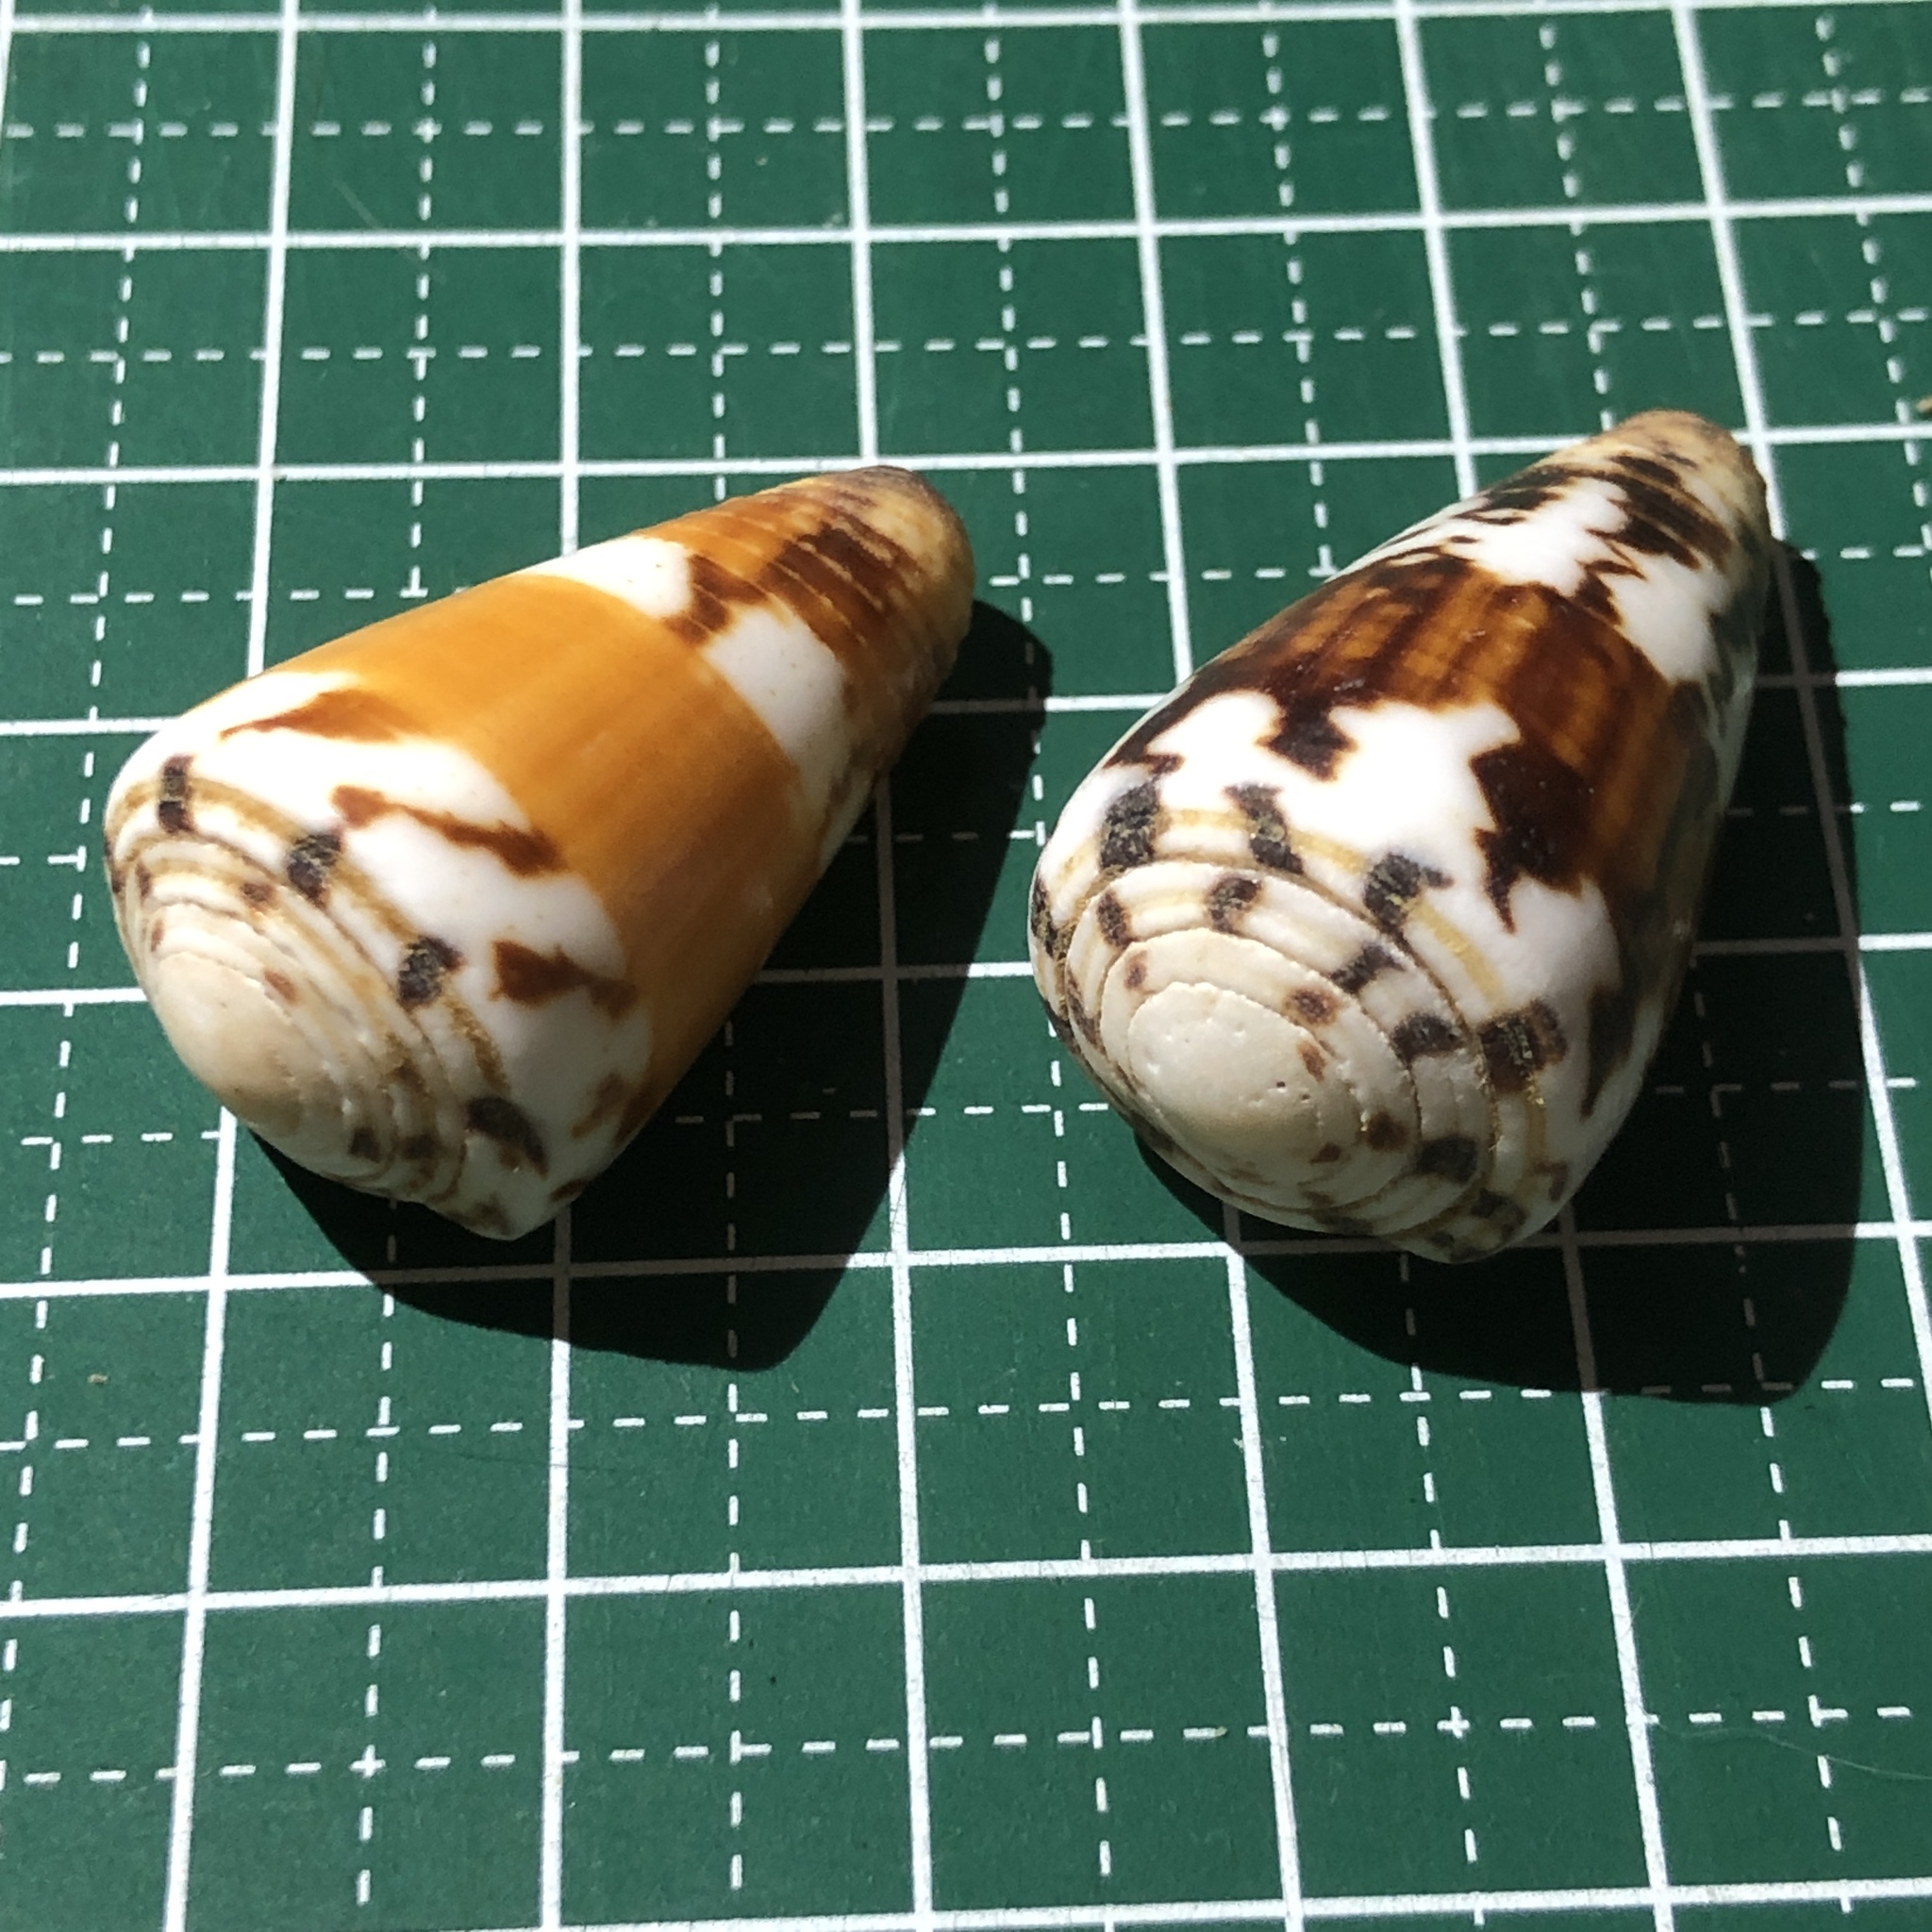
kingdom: Animalia
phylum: Mollusca
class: Gastropoda
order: Neogastropoda
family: Conidae
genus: Conus
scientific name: Conus planorbis
